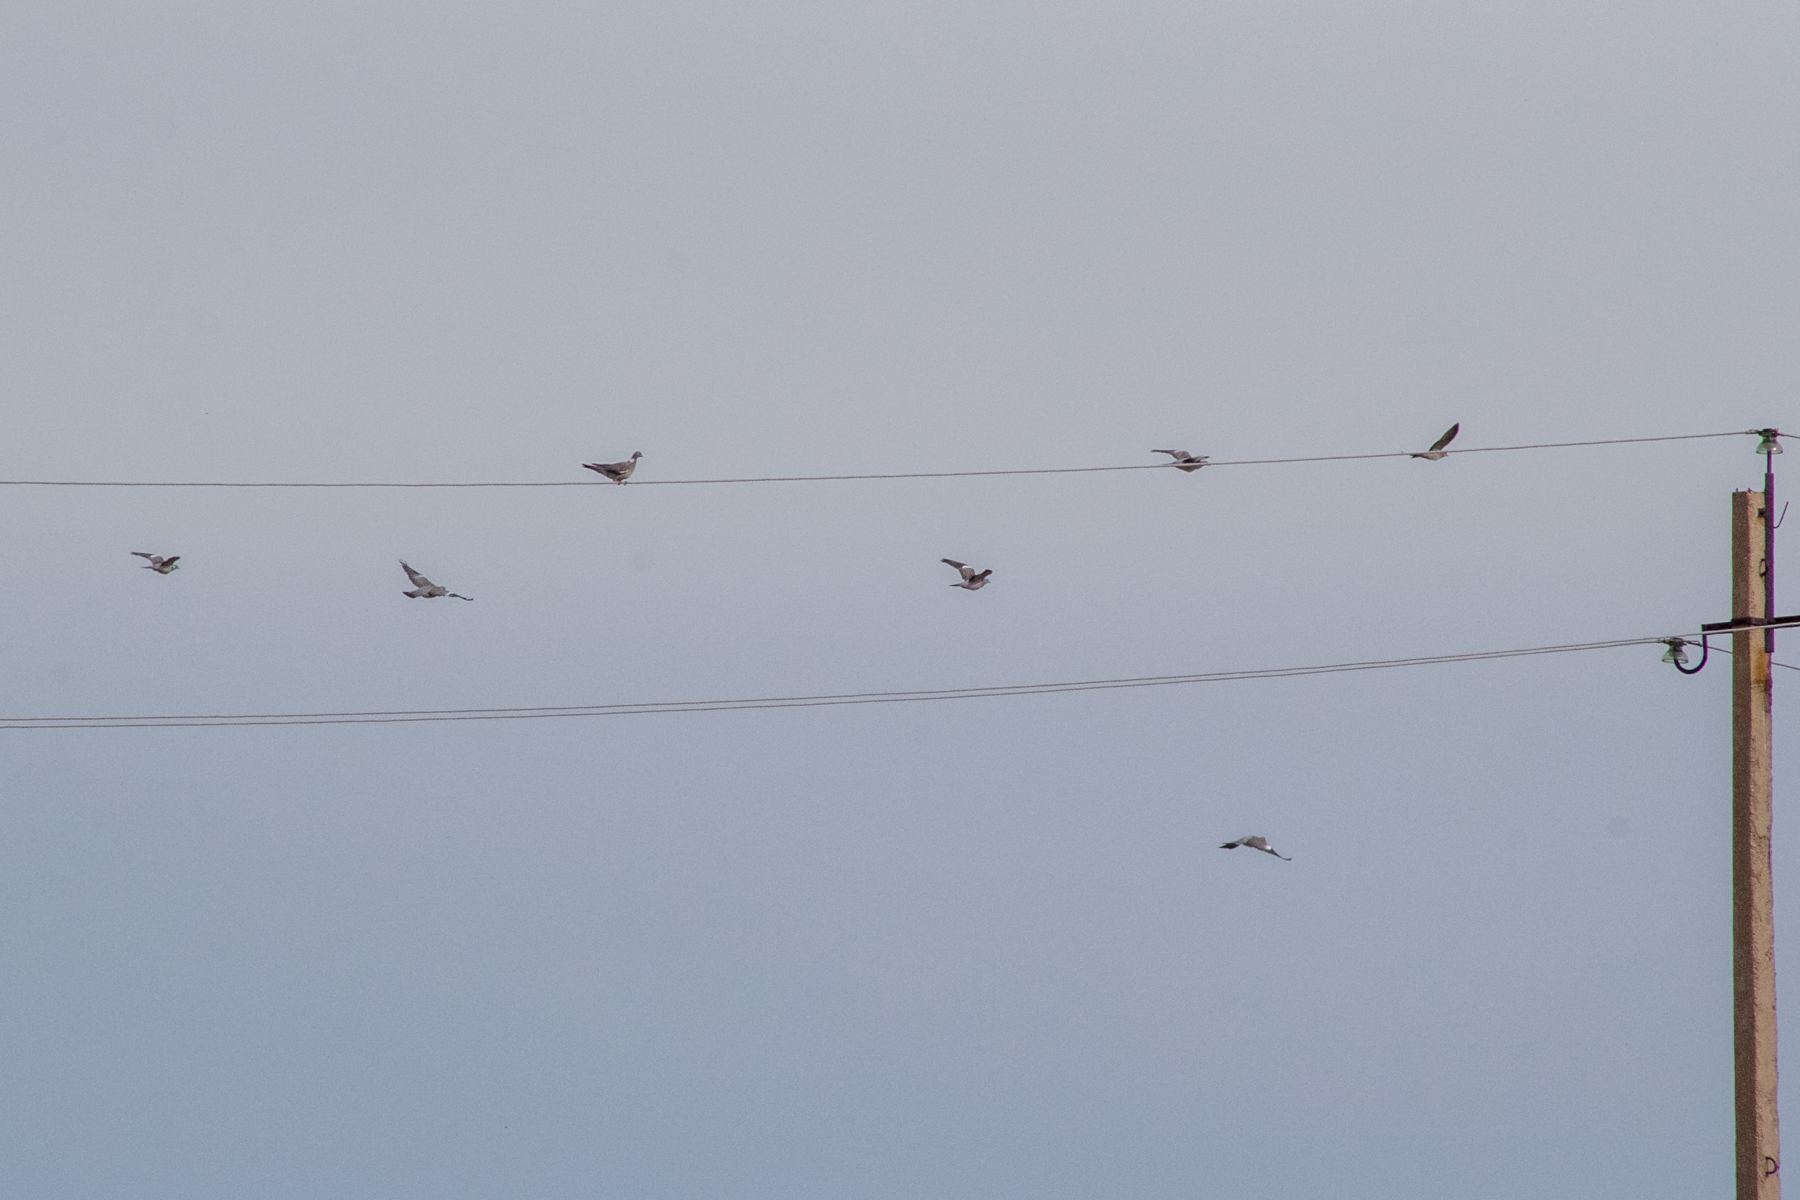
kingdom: Animalia
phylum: Chordata
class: Aves
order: Columbiformes
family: Columbidae
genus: Columba
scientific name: Columba palumbus
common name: Common wood pigeon
